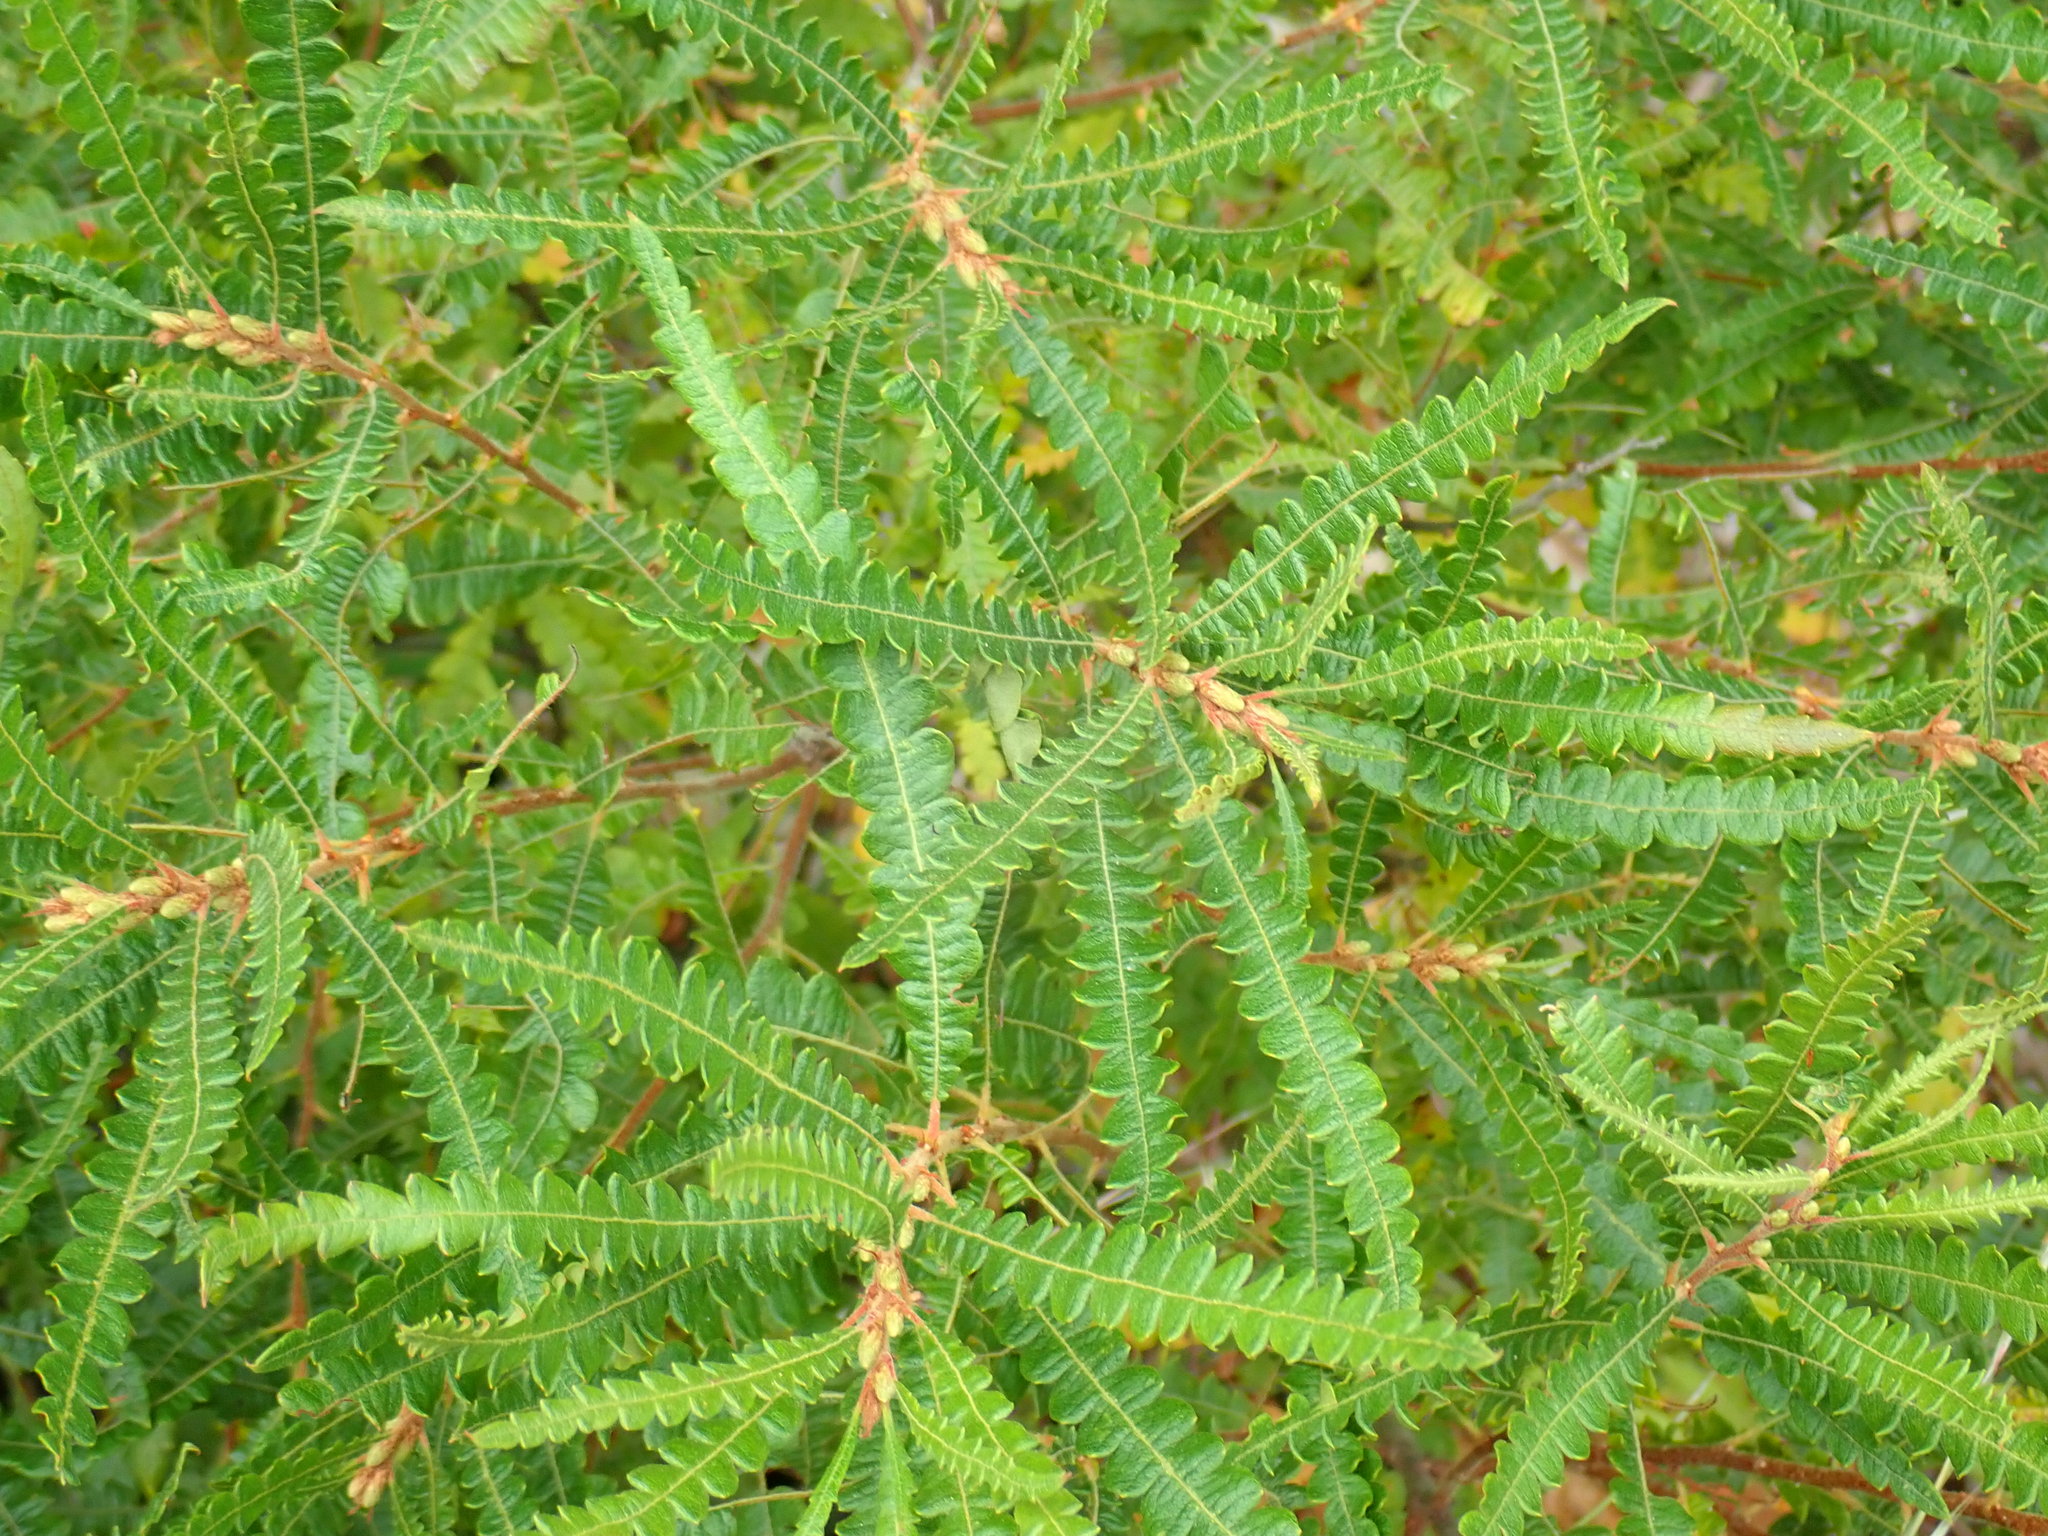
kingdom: Plantae
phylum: Tracheophyta
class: Magnoliopsida
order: Fagales
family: Myricaceae
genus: Comptonia
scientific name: Comptonia peregrina
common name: Sweet-fern
